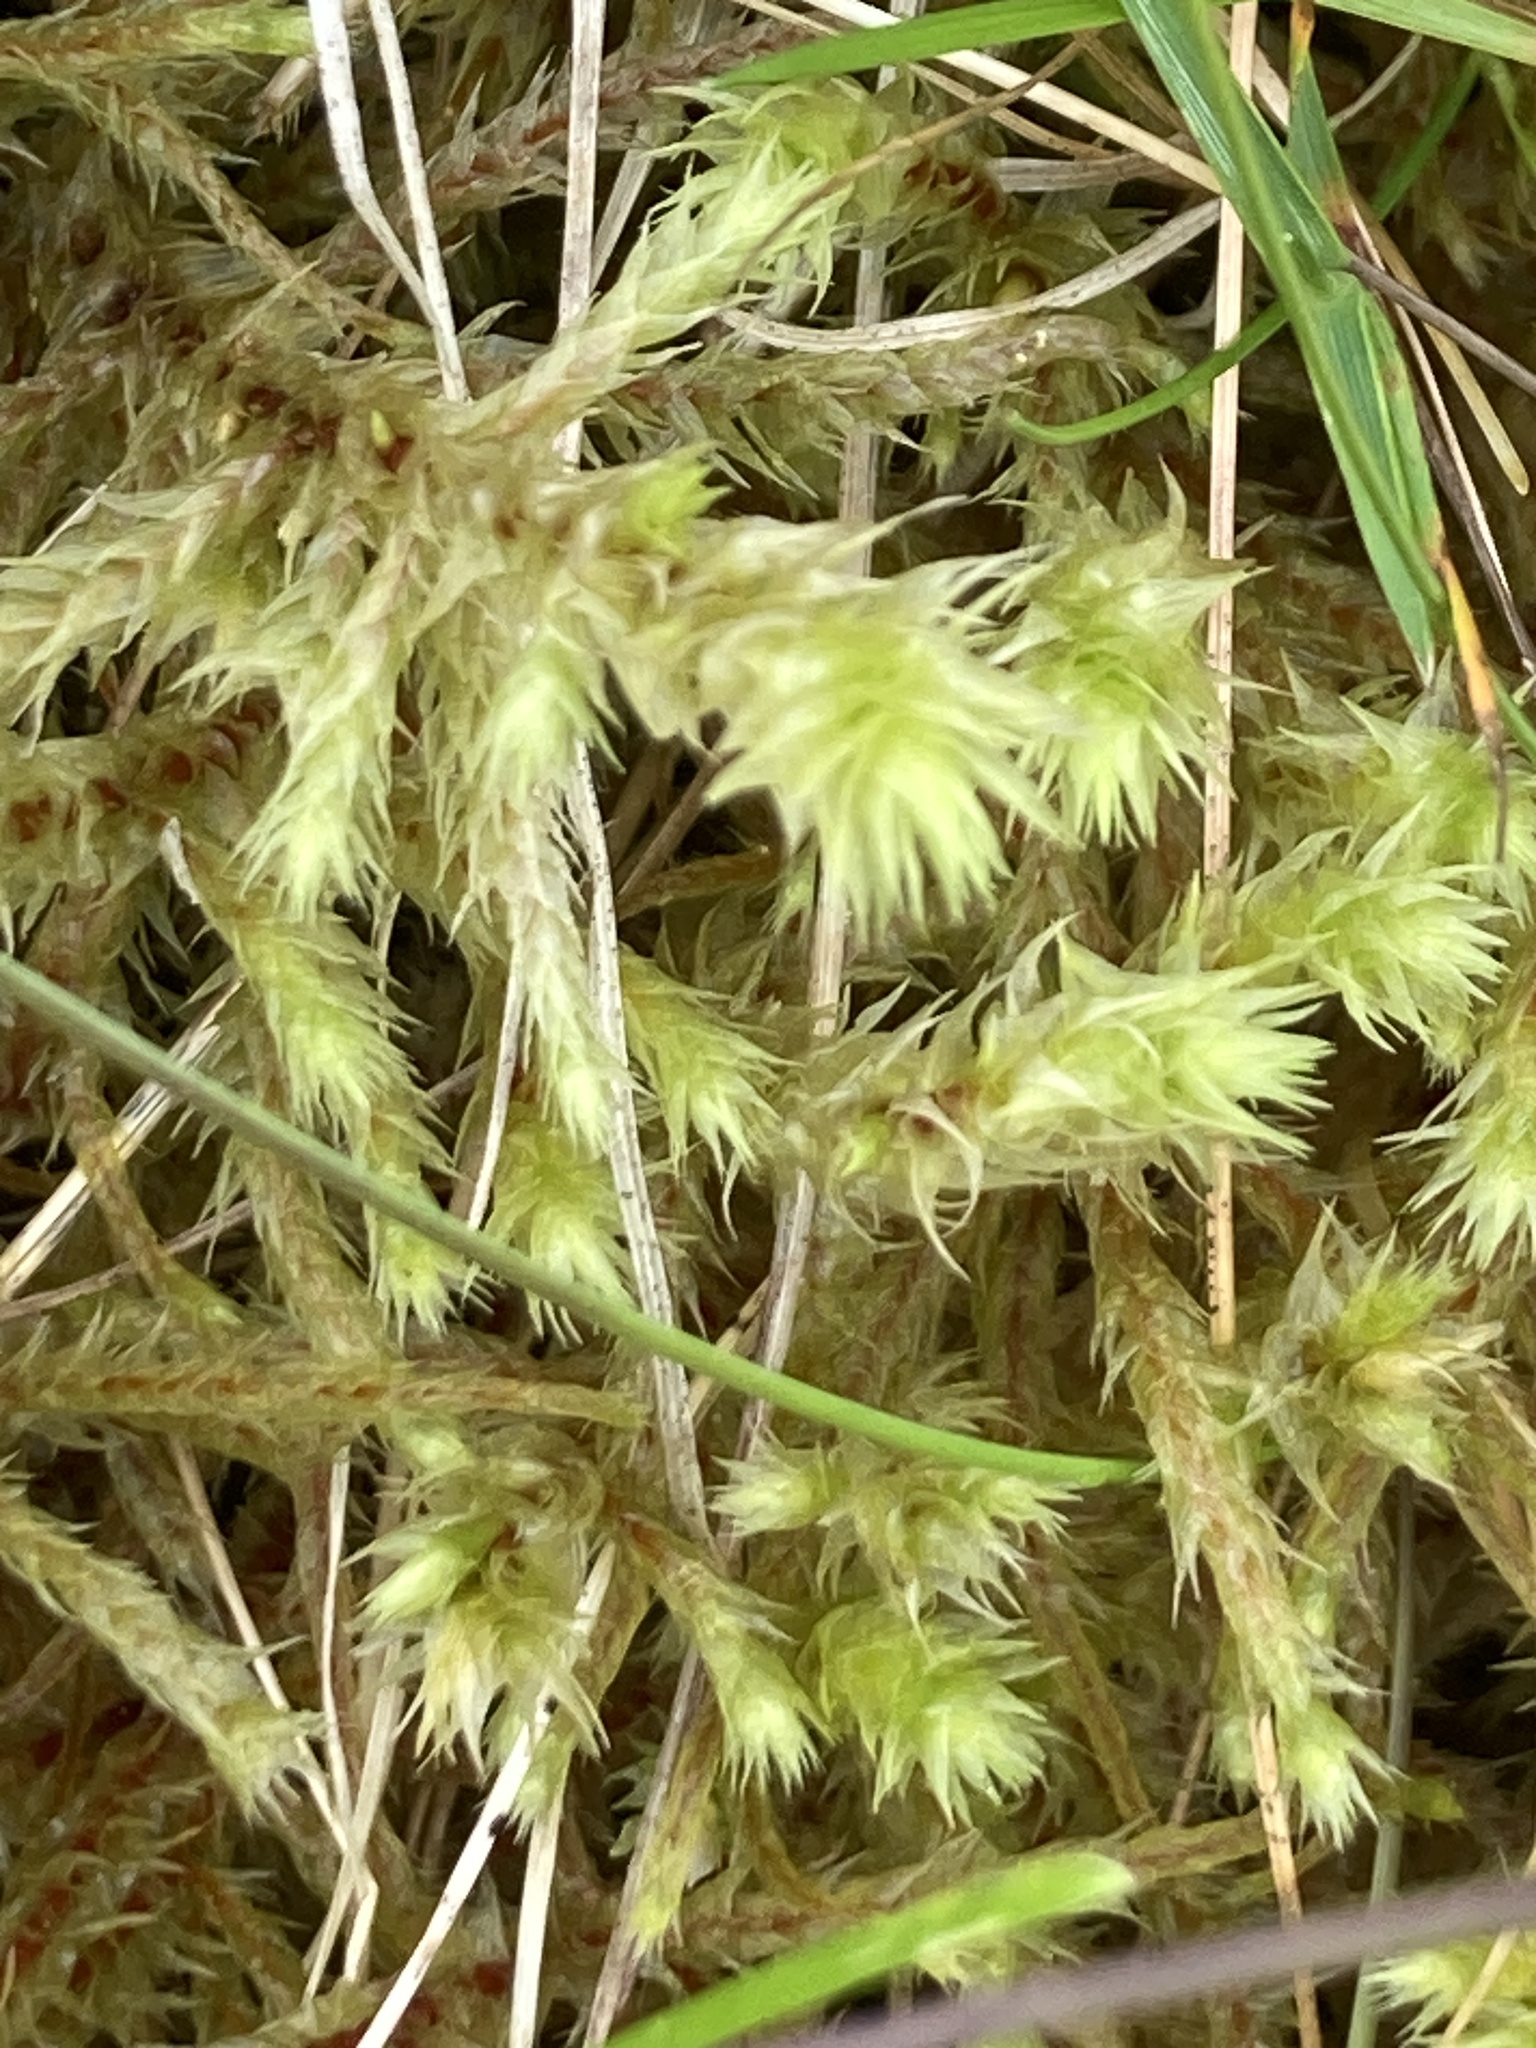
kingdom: Plantae
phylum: Bryophyta
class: Bryopsida
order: Hypnales
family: Hylocomiaceae
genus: Hylocomiadelphus
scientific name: Hylocomiadelphus triquetrus
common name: Rough goose neck moss
